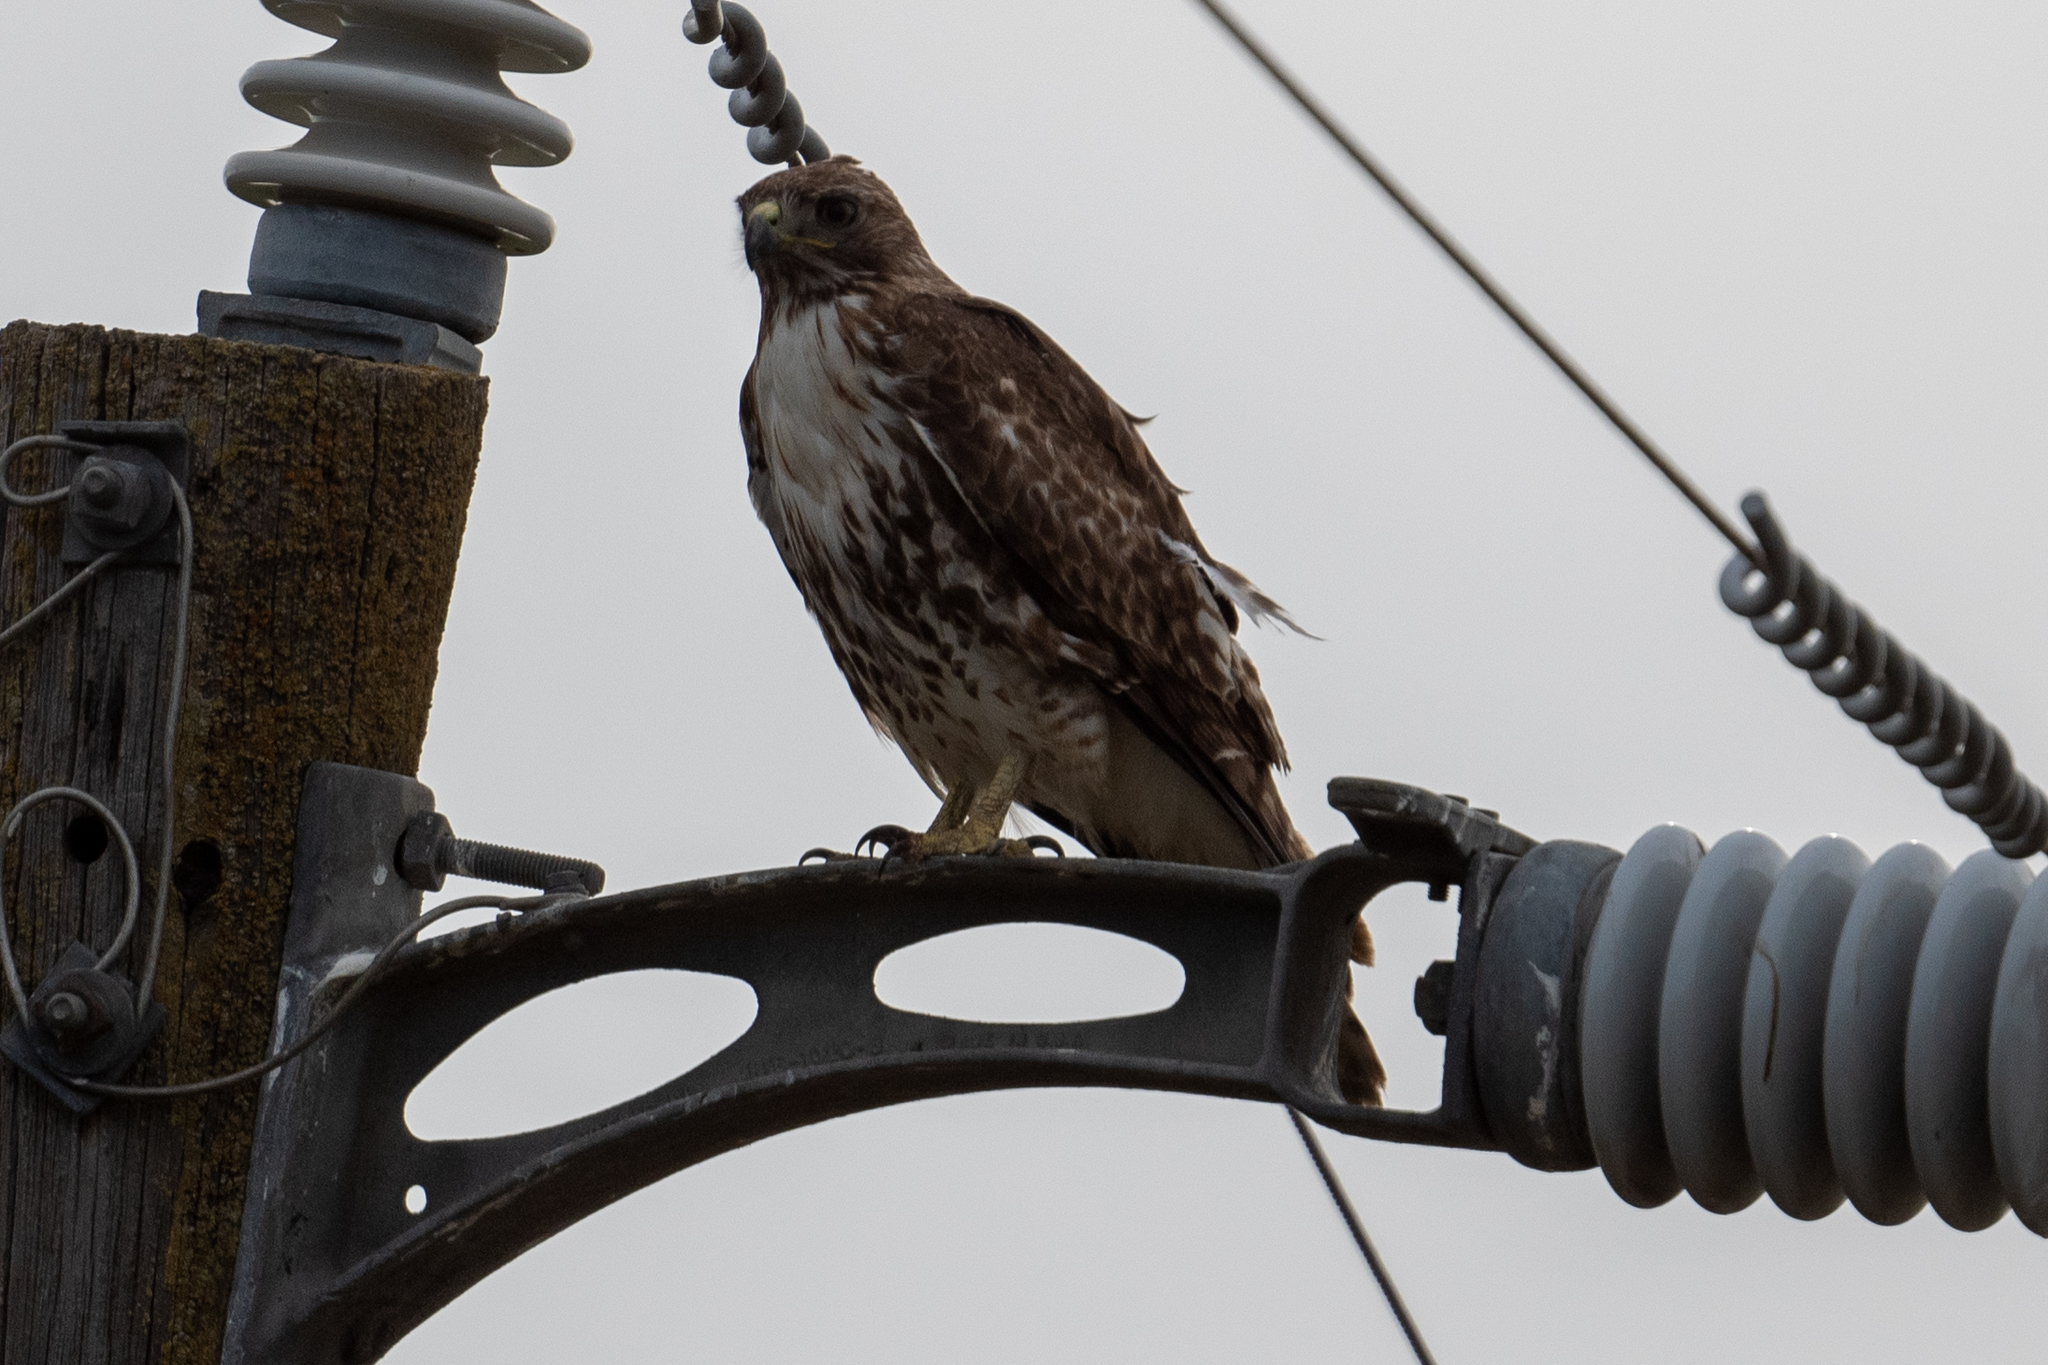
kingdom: Animalia
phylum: Chordata
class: Aves
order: Accipitriformes
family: Accipitridae
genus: Buteo
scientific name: Buteo jamaicensis
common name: Red-tailed hawk
